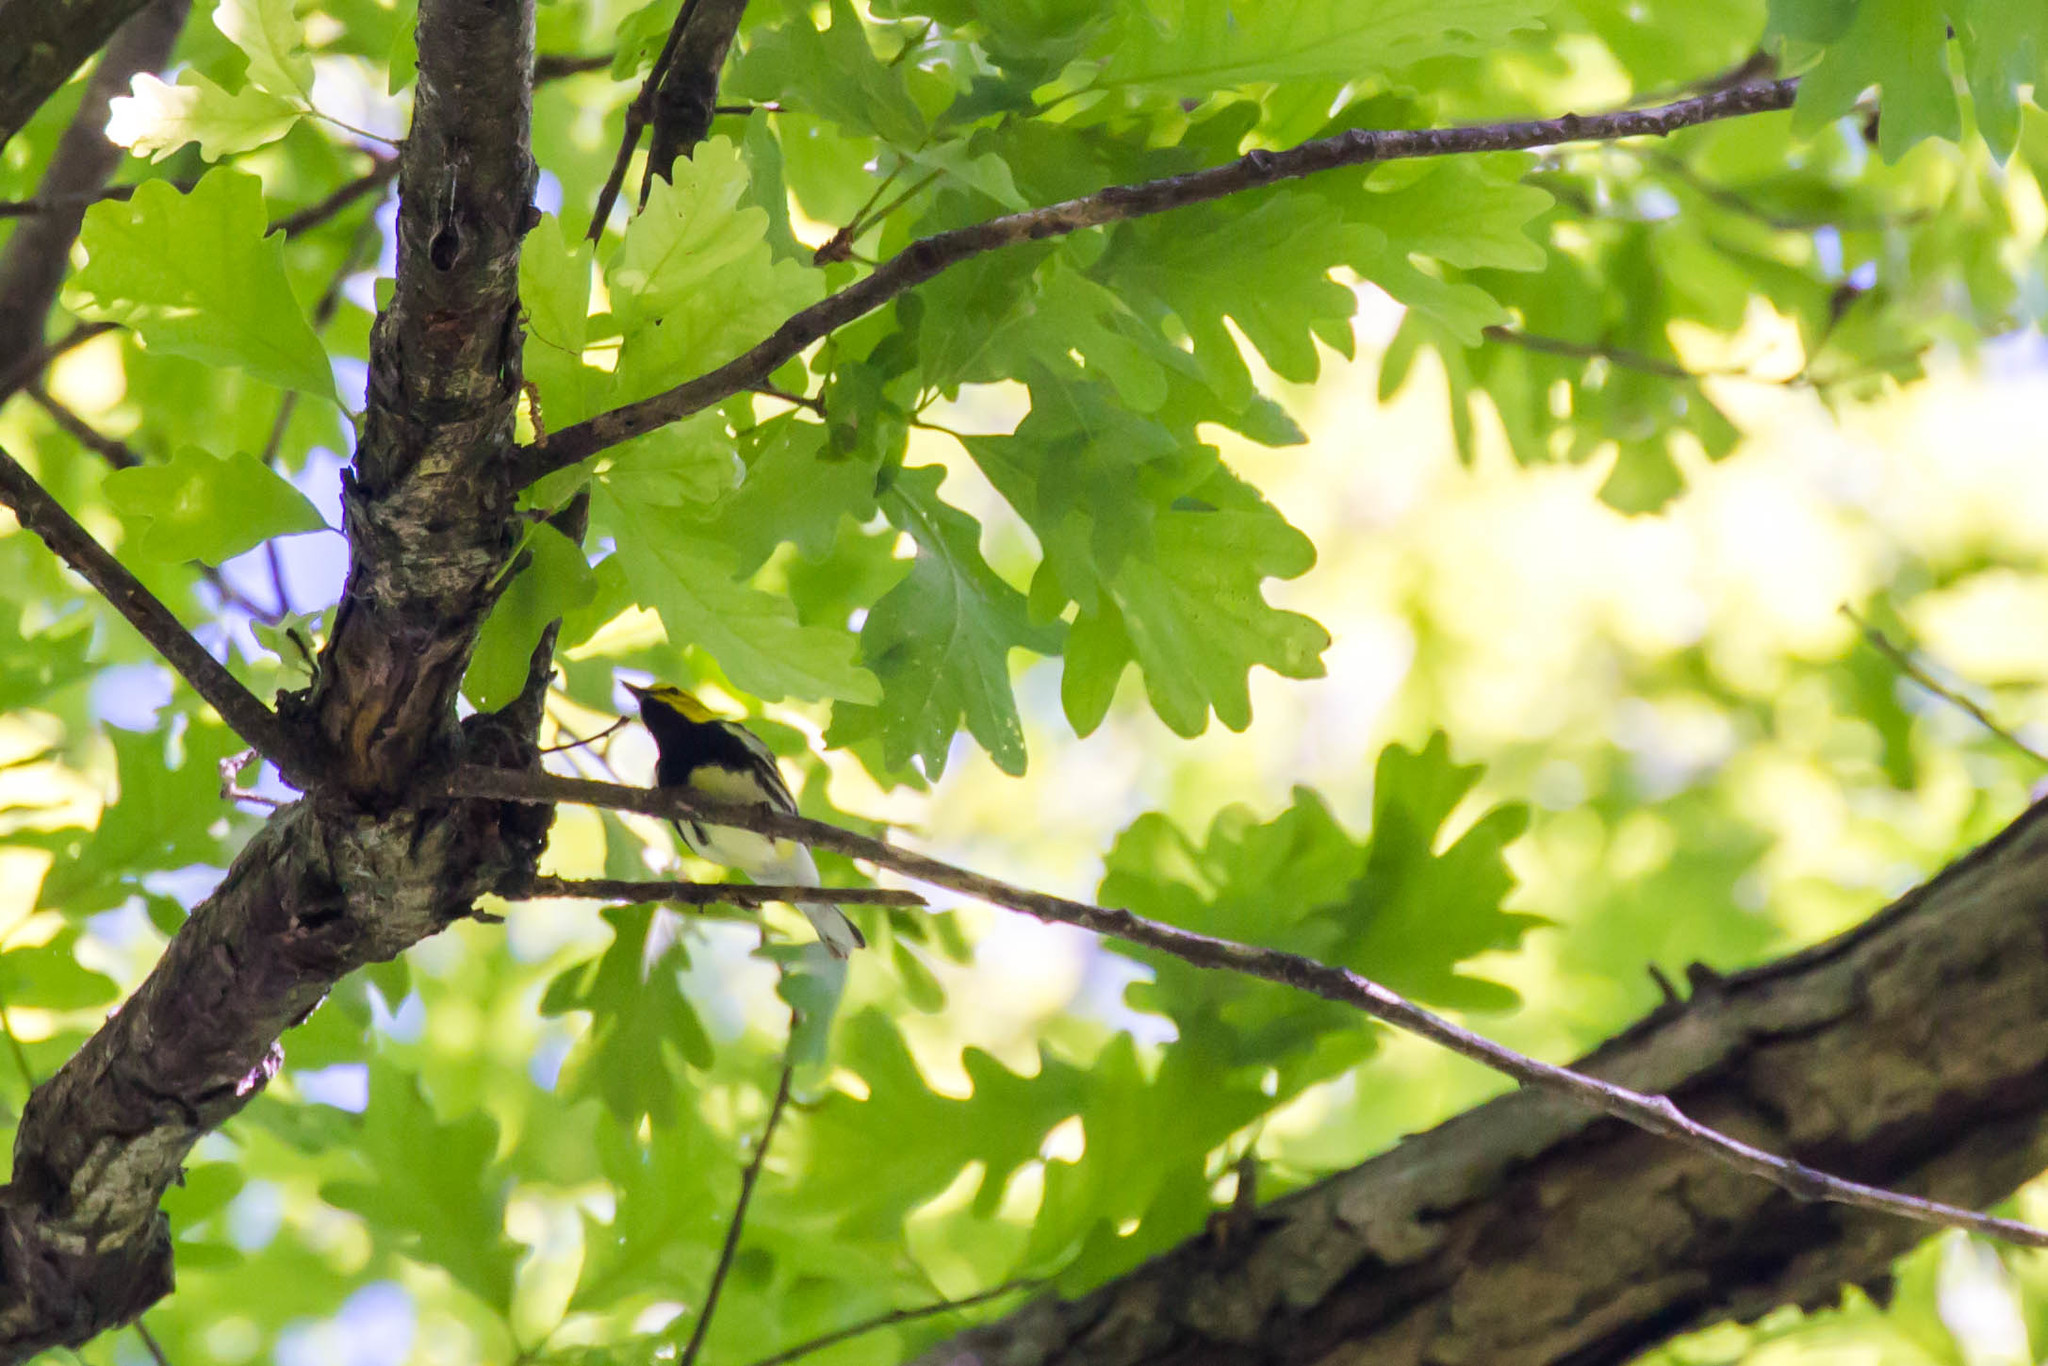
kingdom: Animalia
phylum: Chordata
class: Aves
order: Passeriformes
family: Parulidae
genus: Setophaga
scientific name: Setophaga virens
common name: Black-throated green warbler
